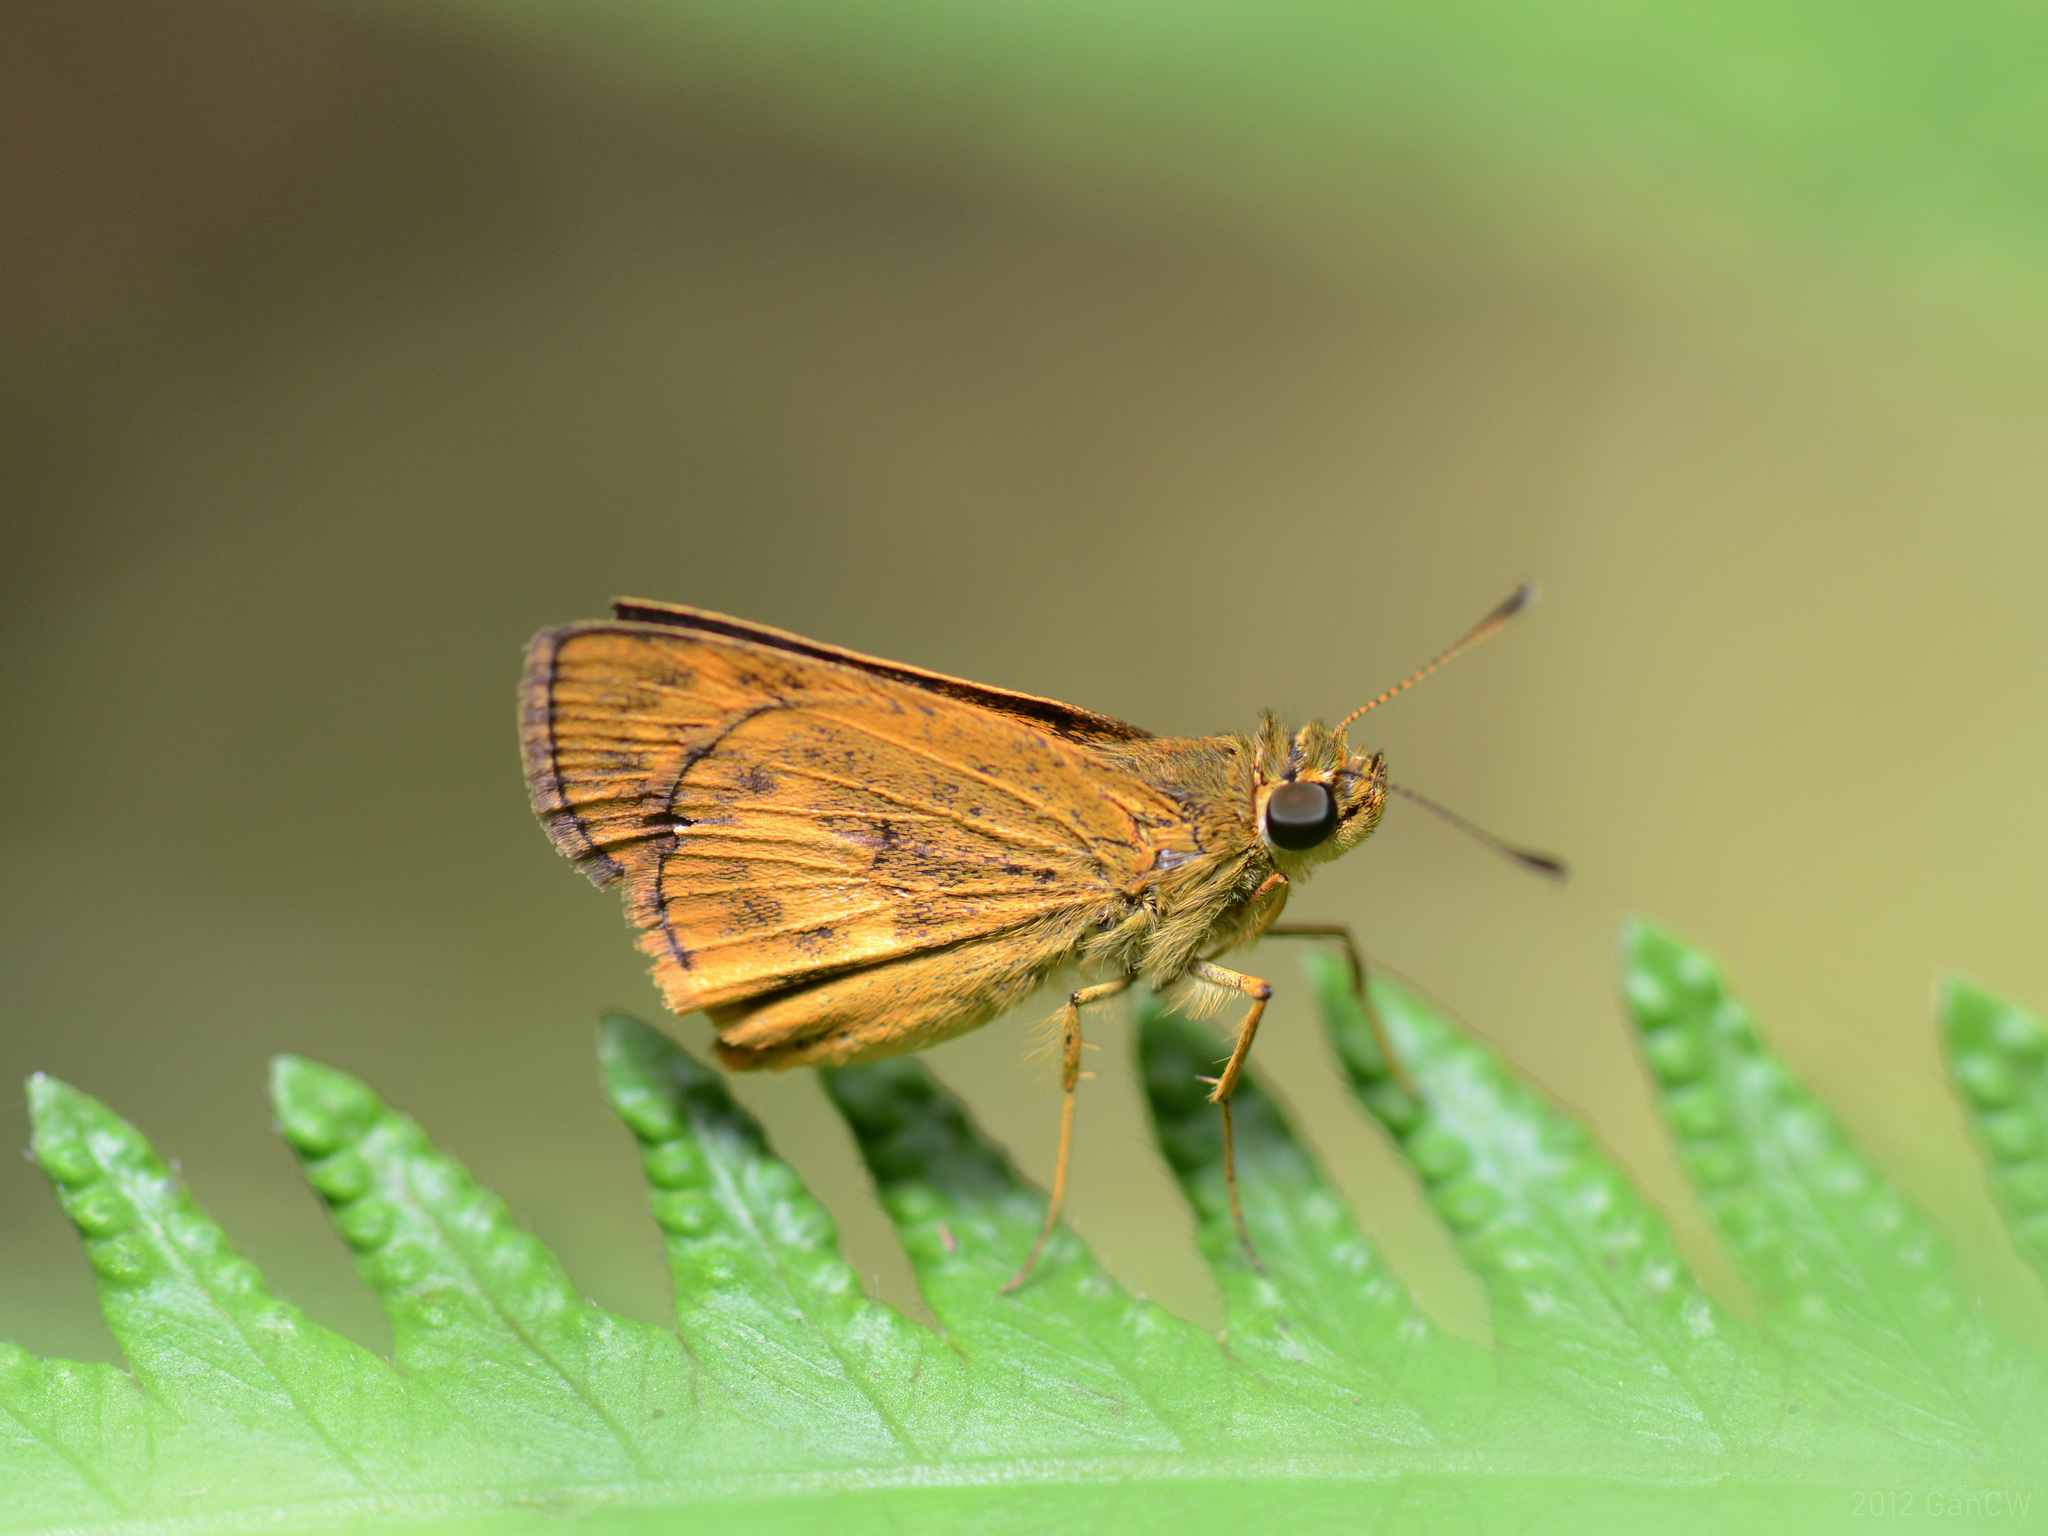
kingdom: Animalia
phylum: Arthropoda
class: Insecta
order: Lepidoptera
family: Hesperiidae
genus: Oriens
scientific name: Oriens gola
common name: Common dartlet
